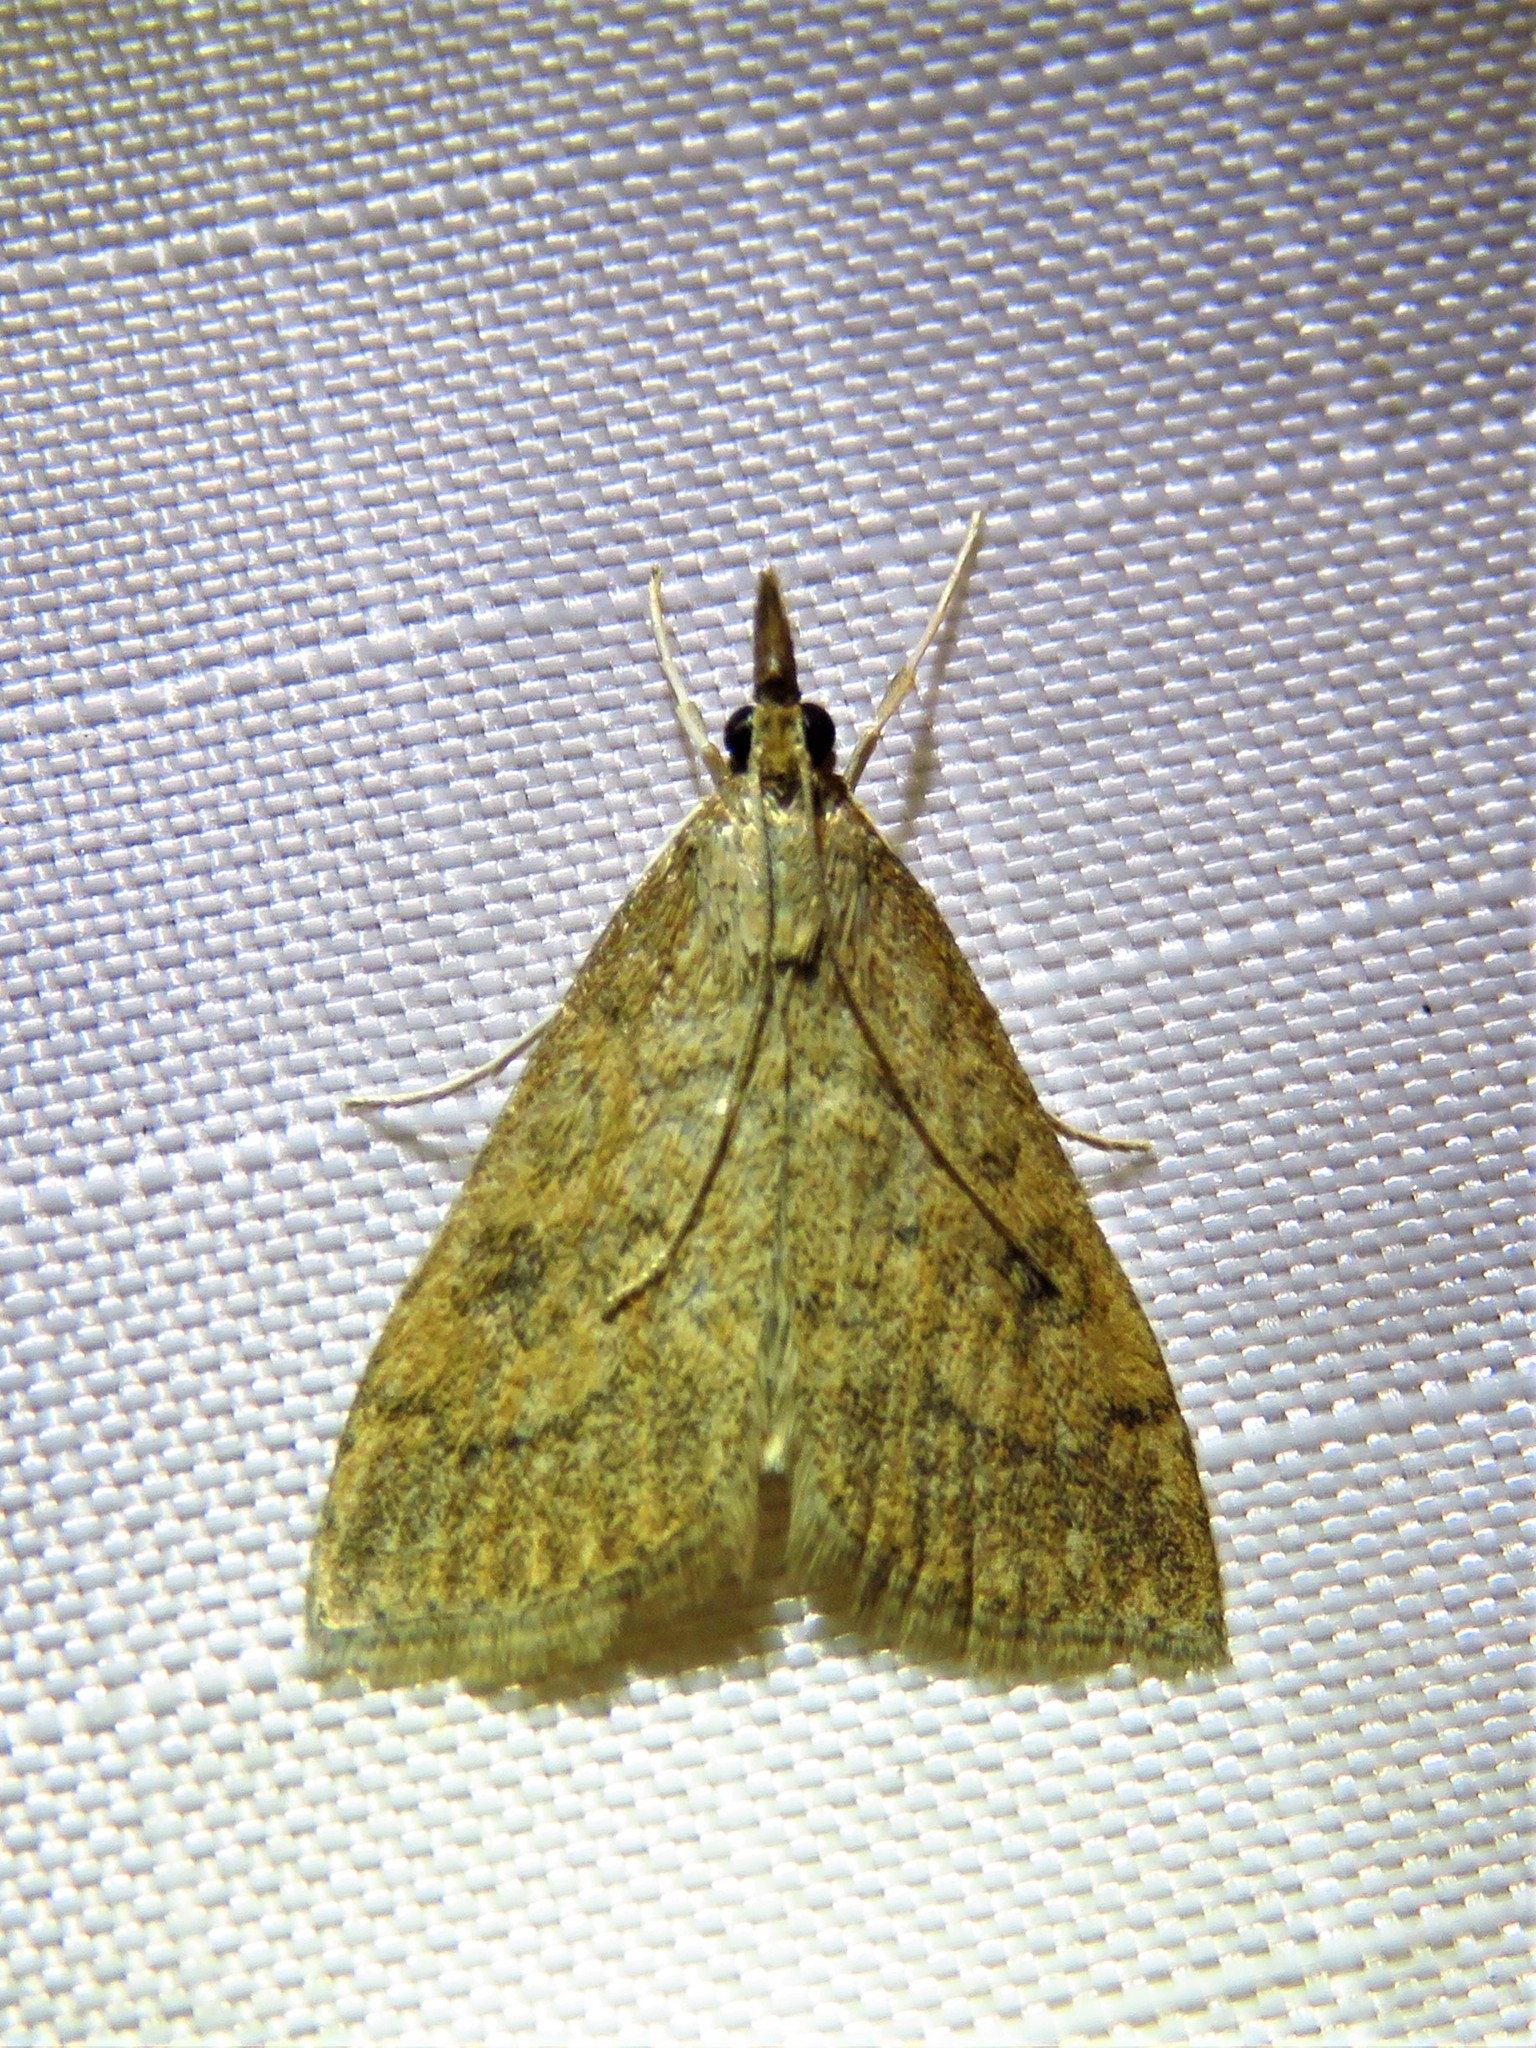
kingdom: Animalia
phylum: Arthropoda
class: Insecta
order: Lepidoptera
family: Crambidae
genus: Udea
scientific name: Udea rubigalis
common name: Celery leaftier moth
